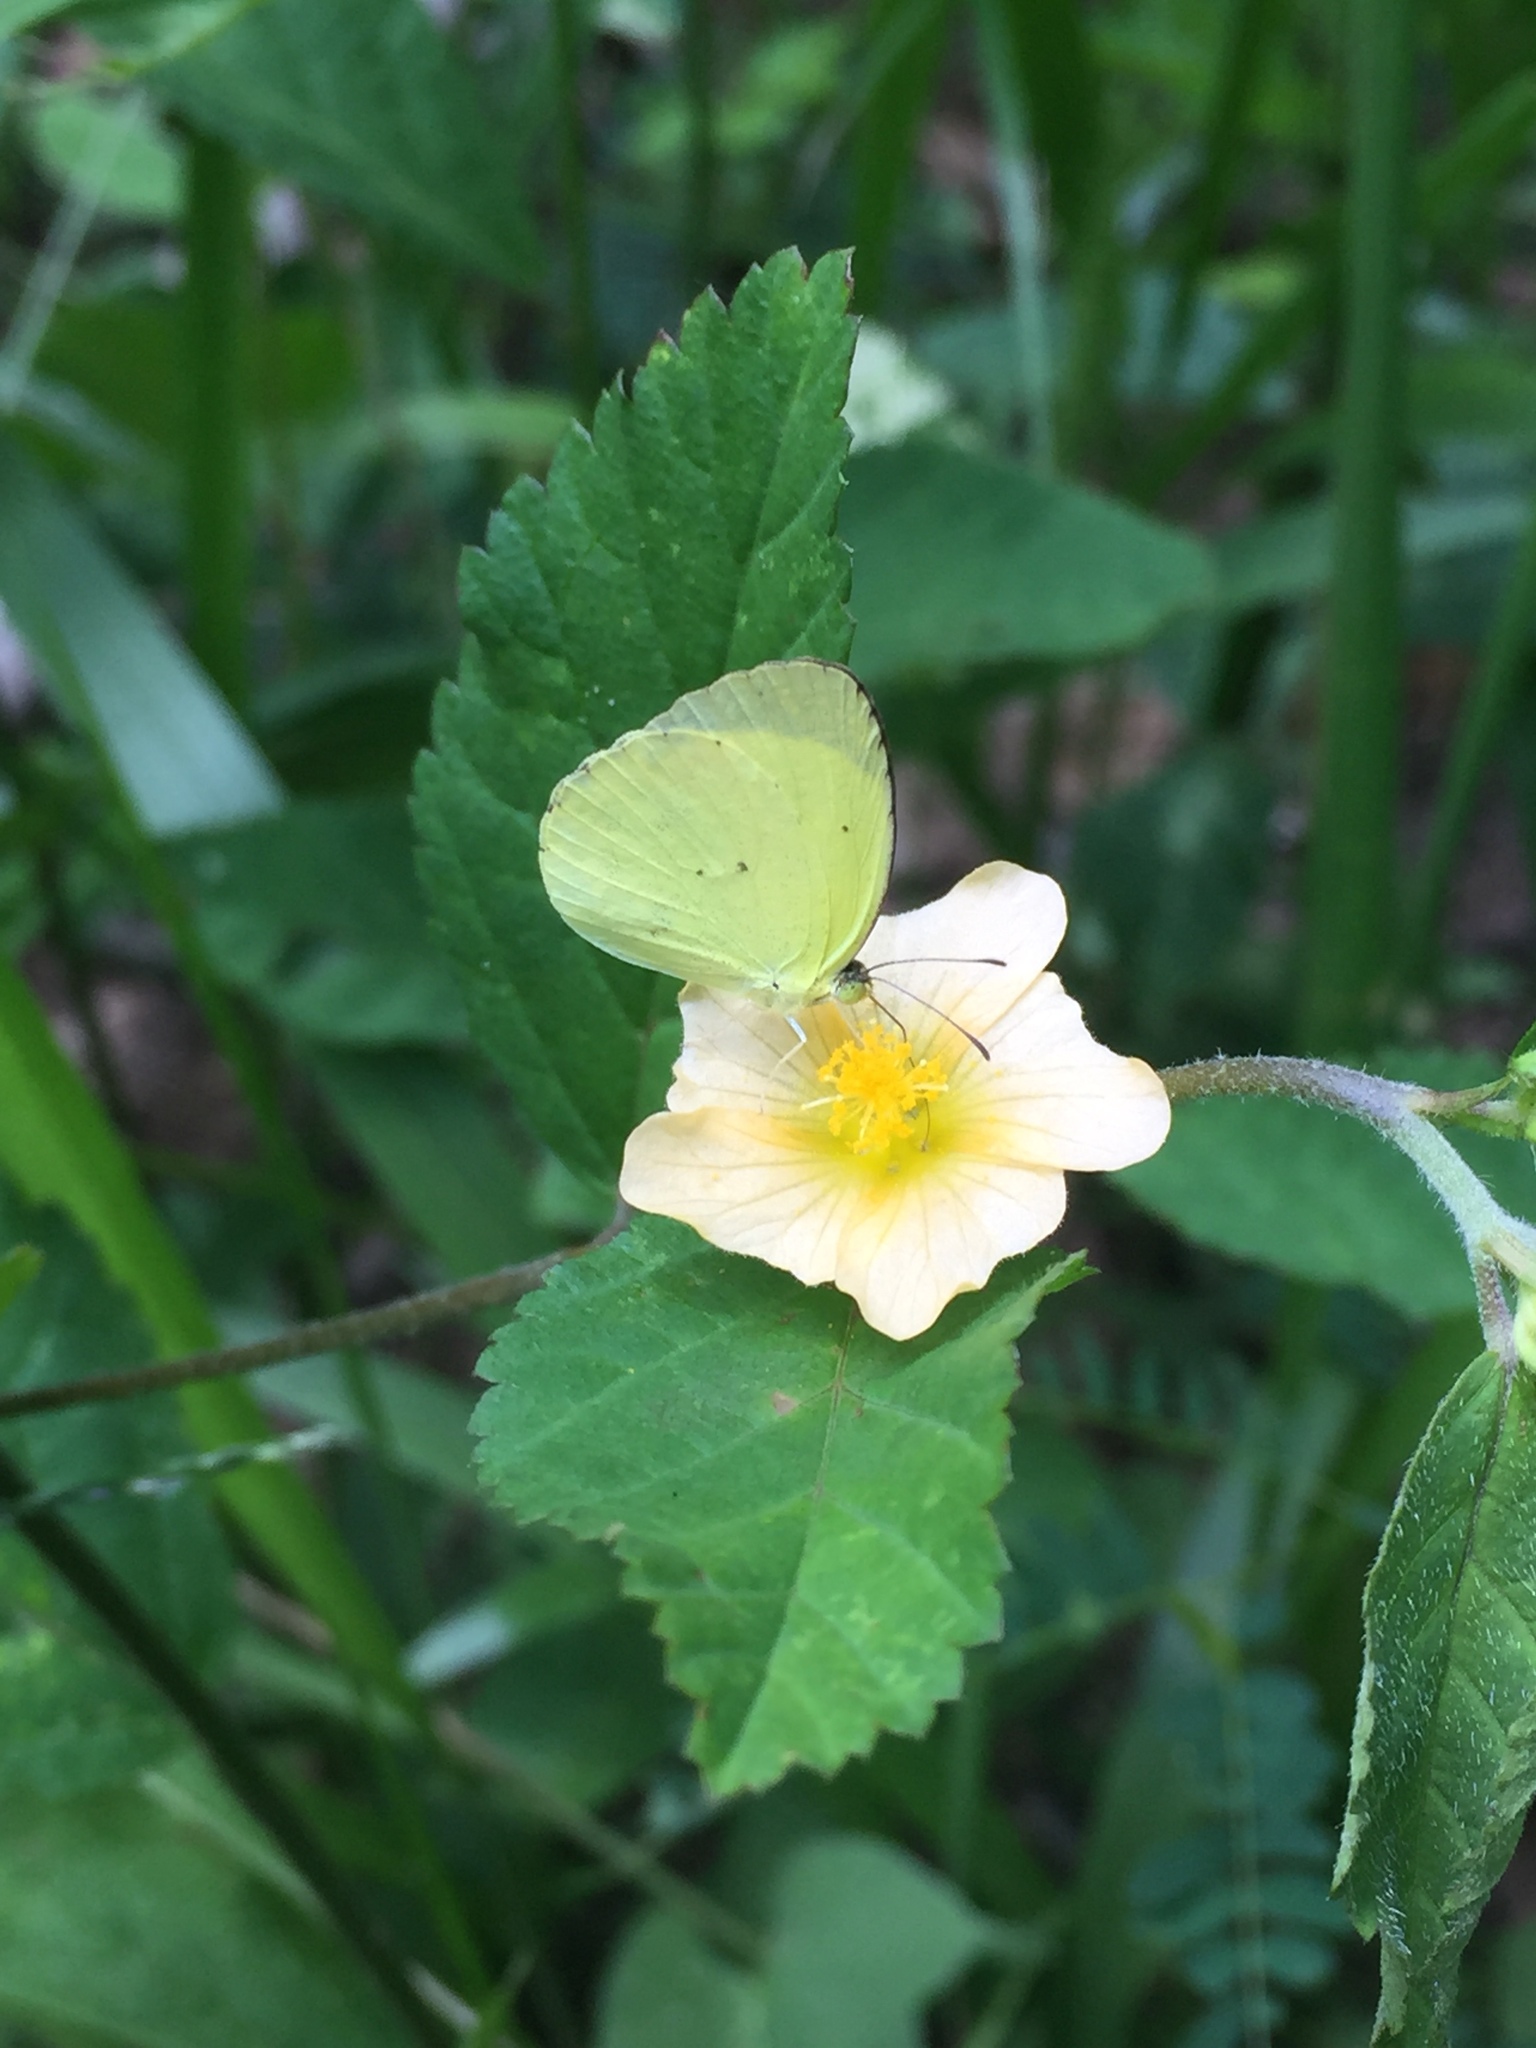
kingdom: Animalia
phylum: Arthropoda
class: Insecta
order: Lepidoptera
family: Pieridae
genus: Pyrisitia
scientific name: Pyrisitia dina
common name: Dina yellow
